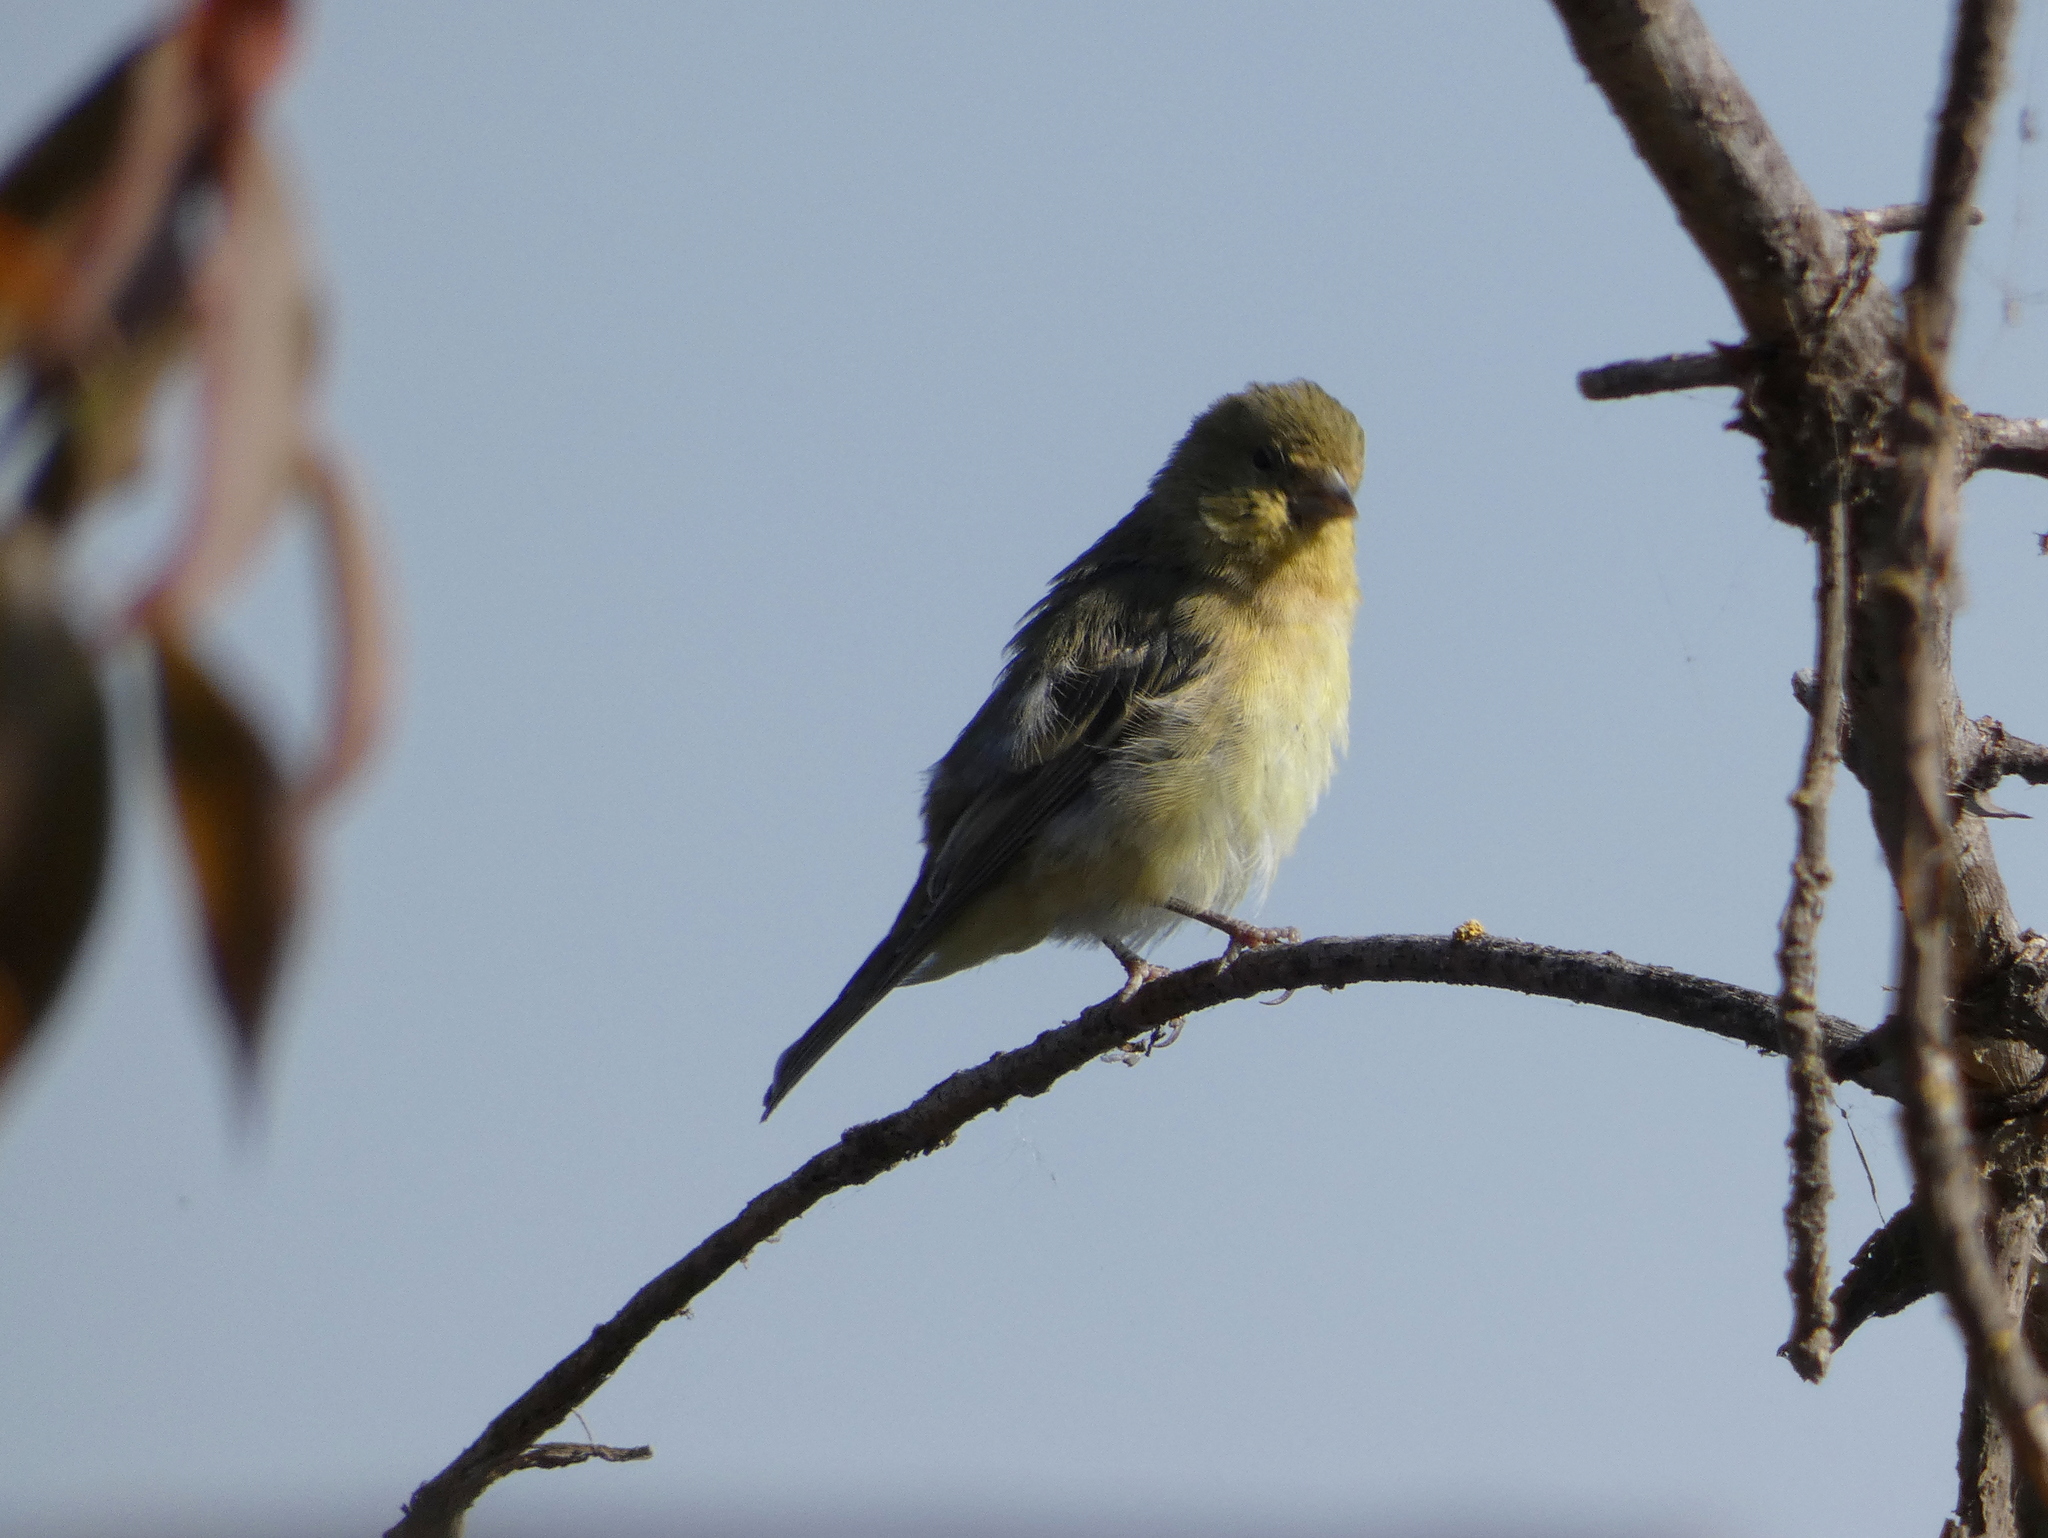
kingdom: Animalia
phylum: Chordata
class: Aves
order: Passeriformes
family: Fringillidae
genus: Spinus
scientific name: Spinus psaltria
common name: Lesser goldfinch
